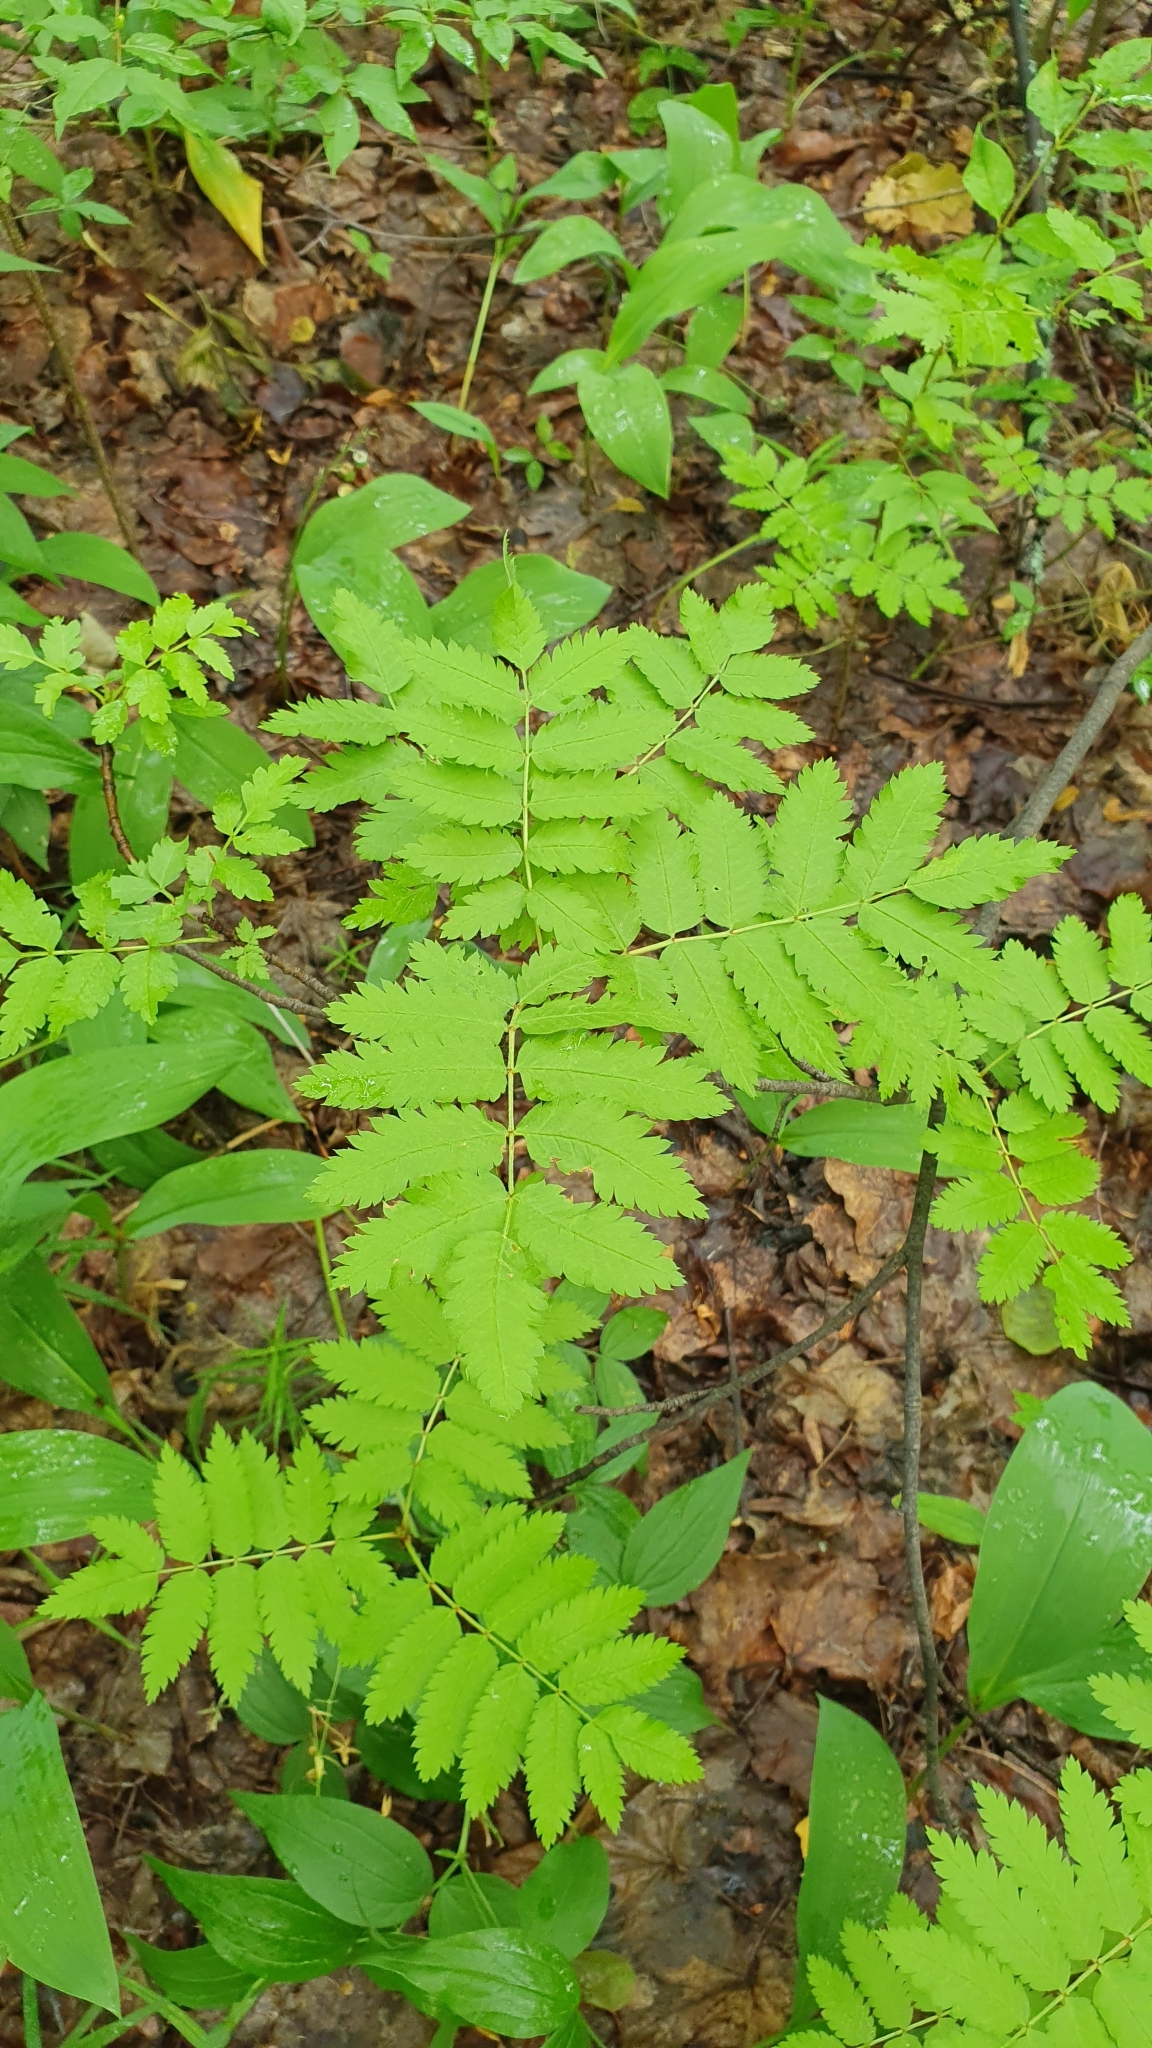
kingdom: Plantae
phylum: Tracheophyta
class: Magnoliopsida
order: Rosales
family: Rosaceae
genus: Sorbus
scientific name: Sorbus aucuparia
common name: Rowan
